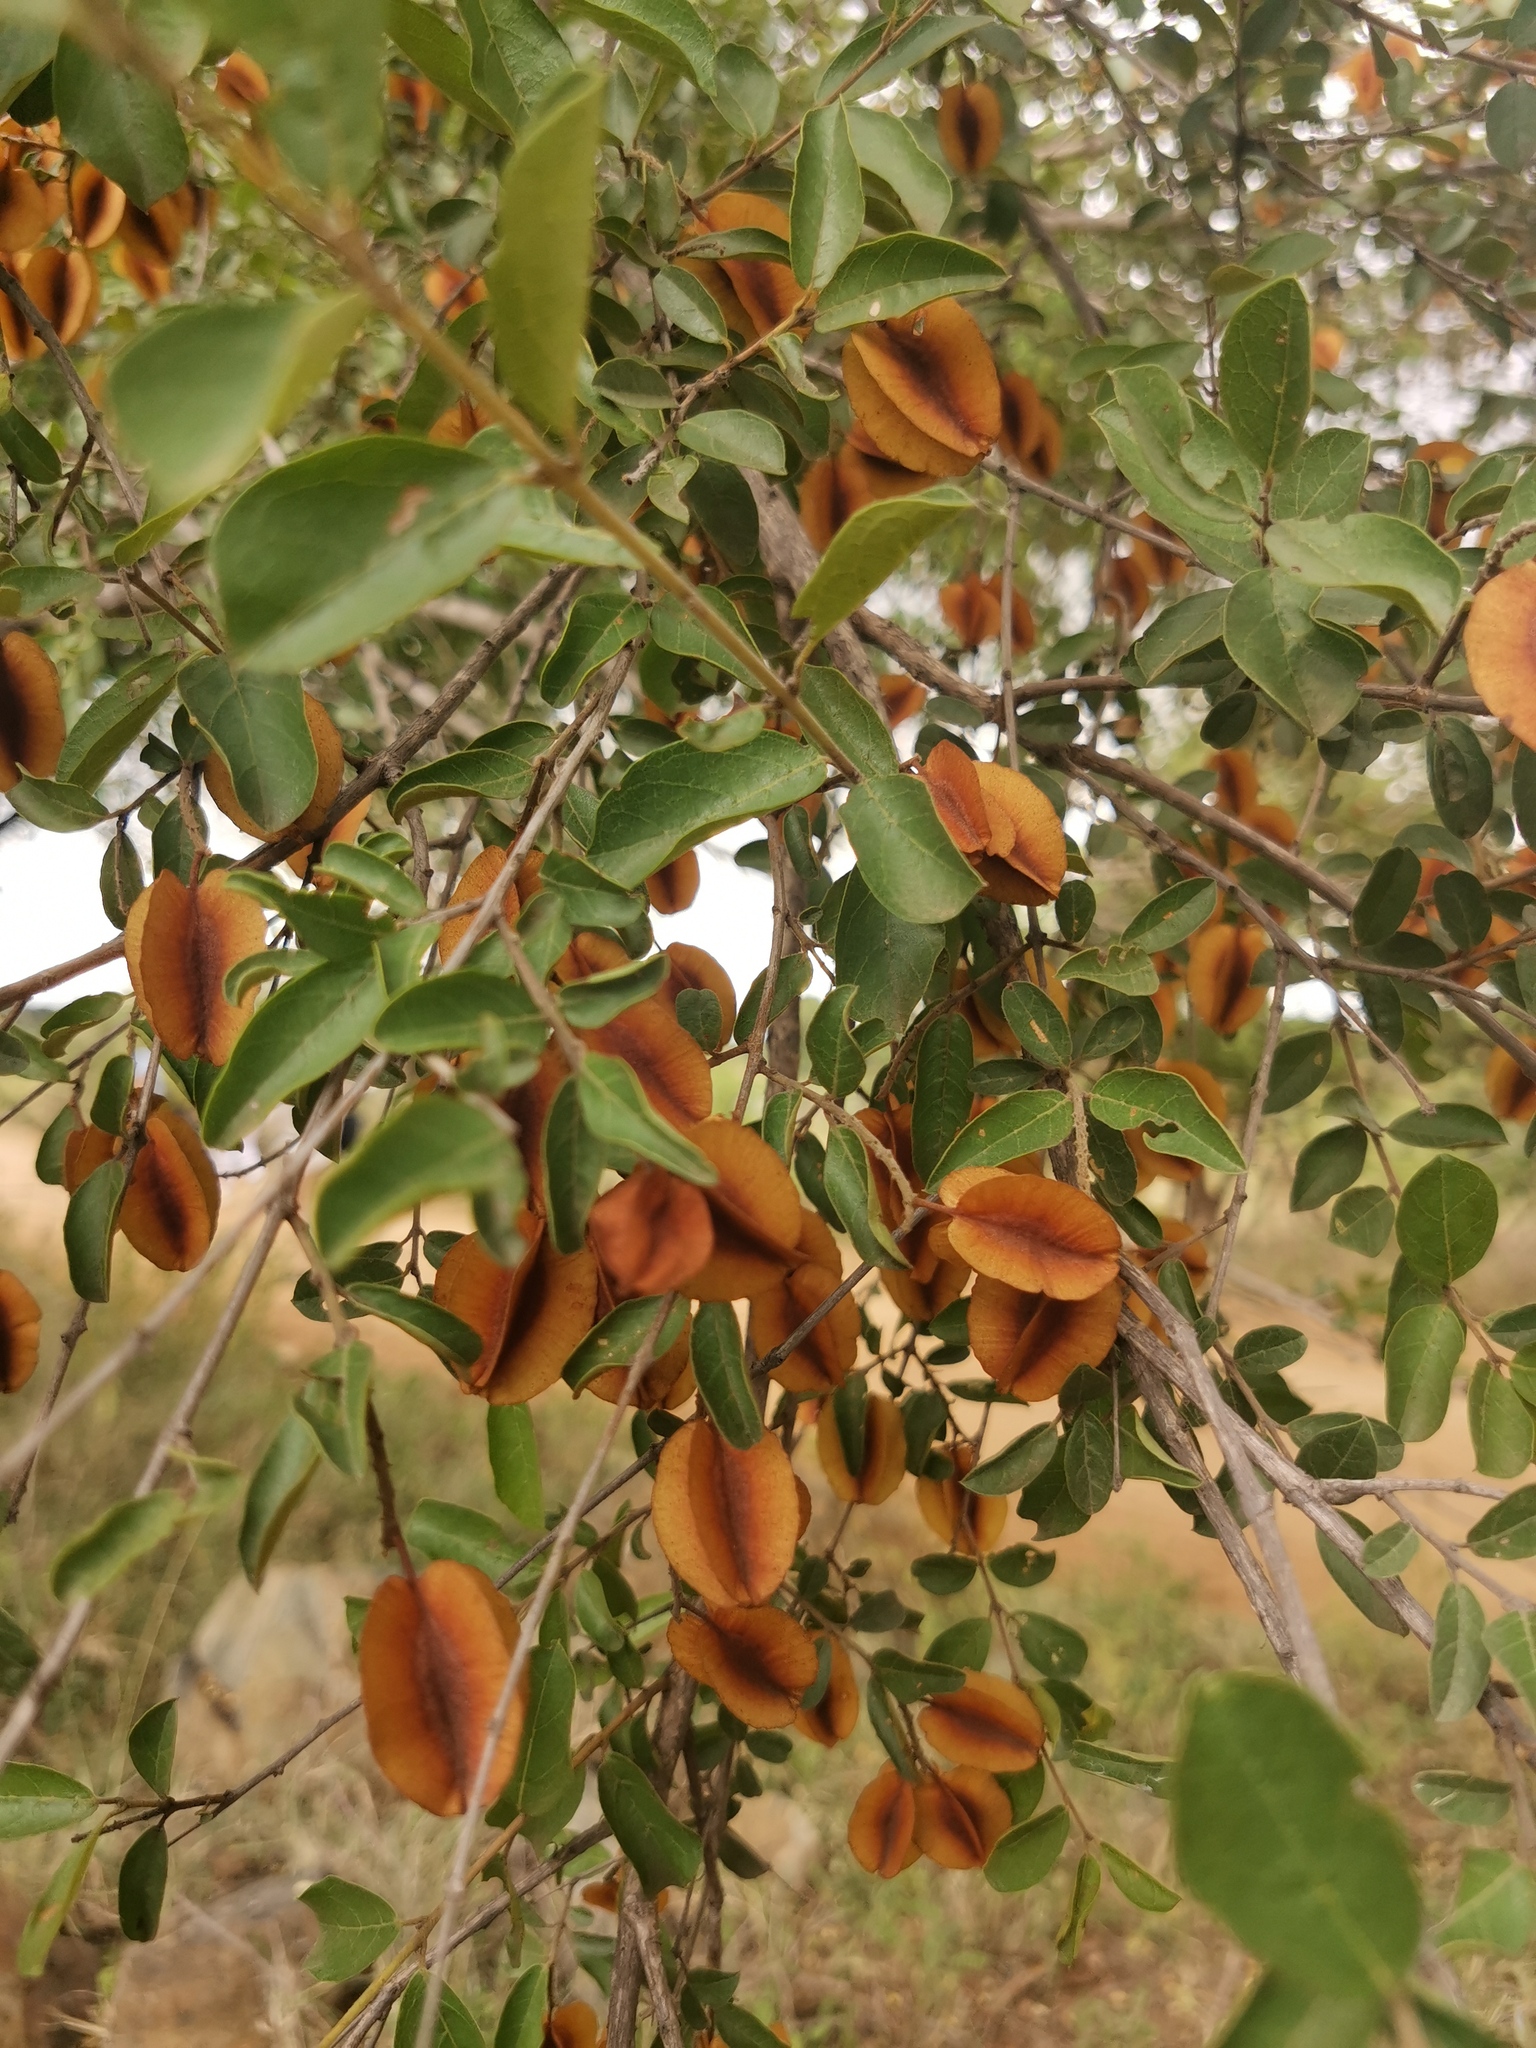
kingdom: Plantae
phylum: Tracheophyta
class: Magnoliopsida
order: Myrtales
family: Combretaceae
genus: Combretum
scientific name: Combretum hereroense
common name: Russet bushwillow
